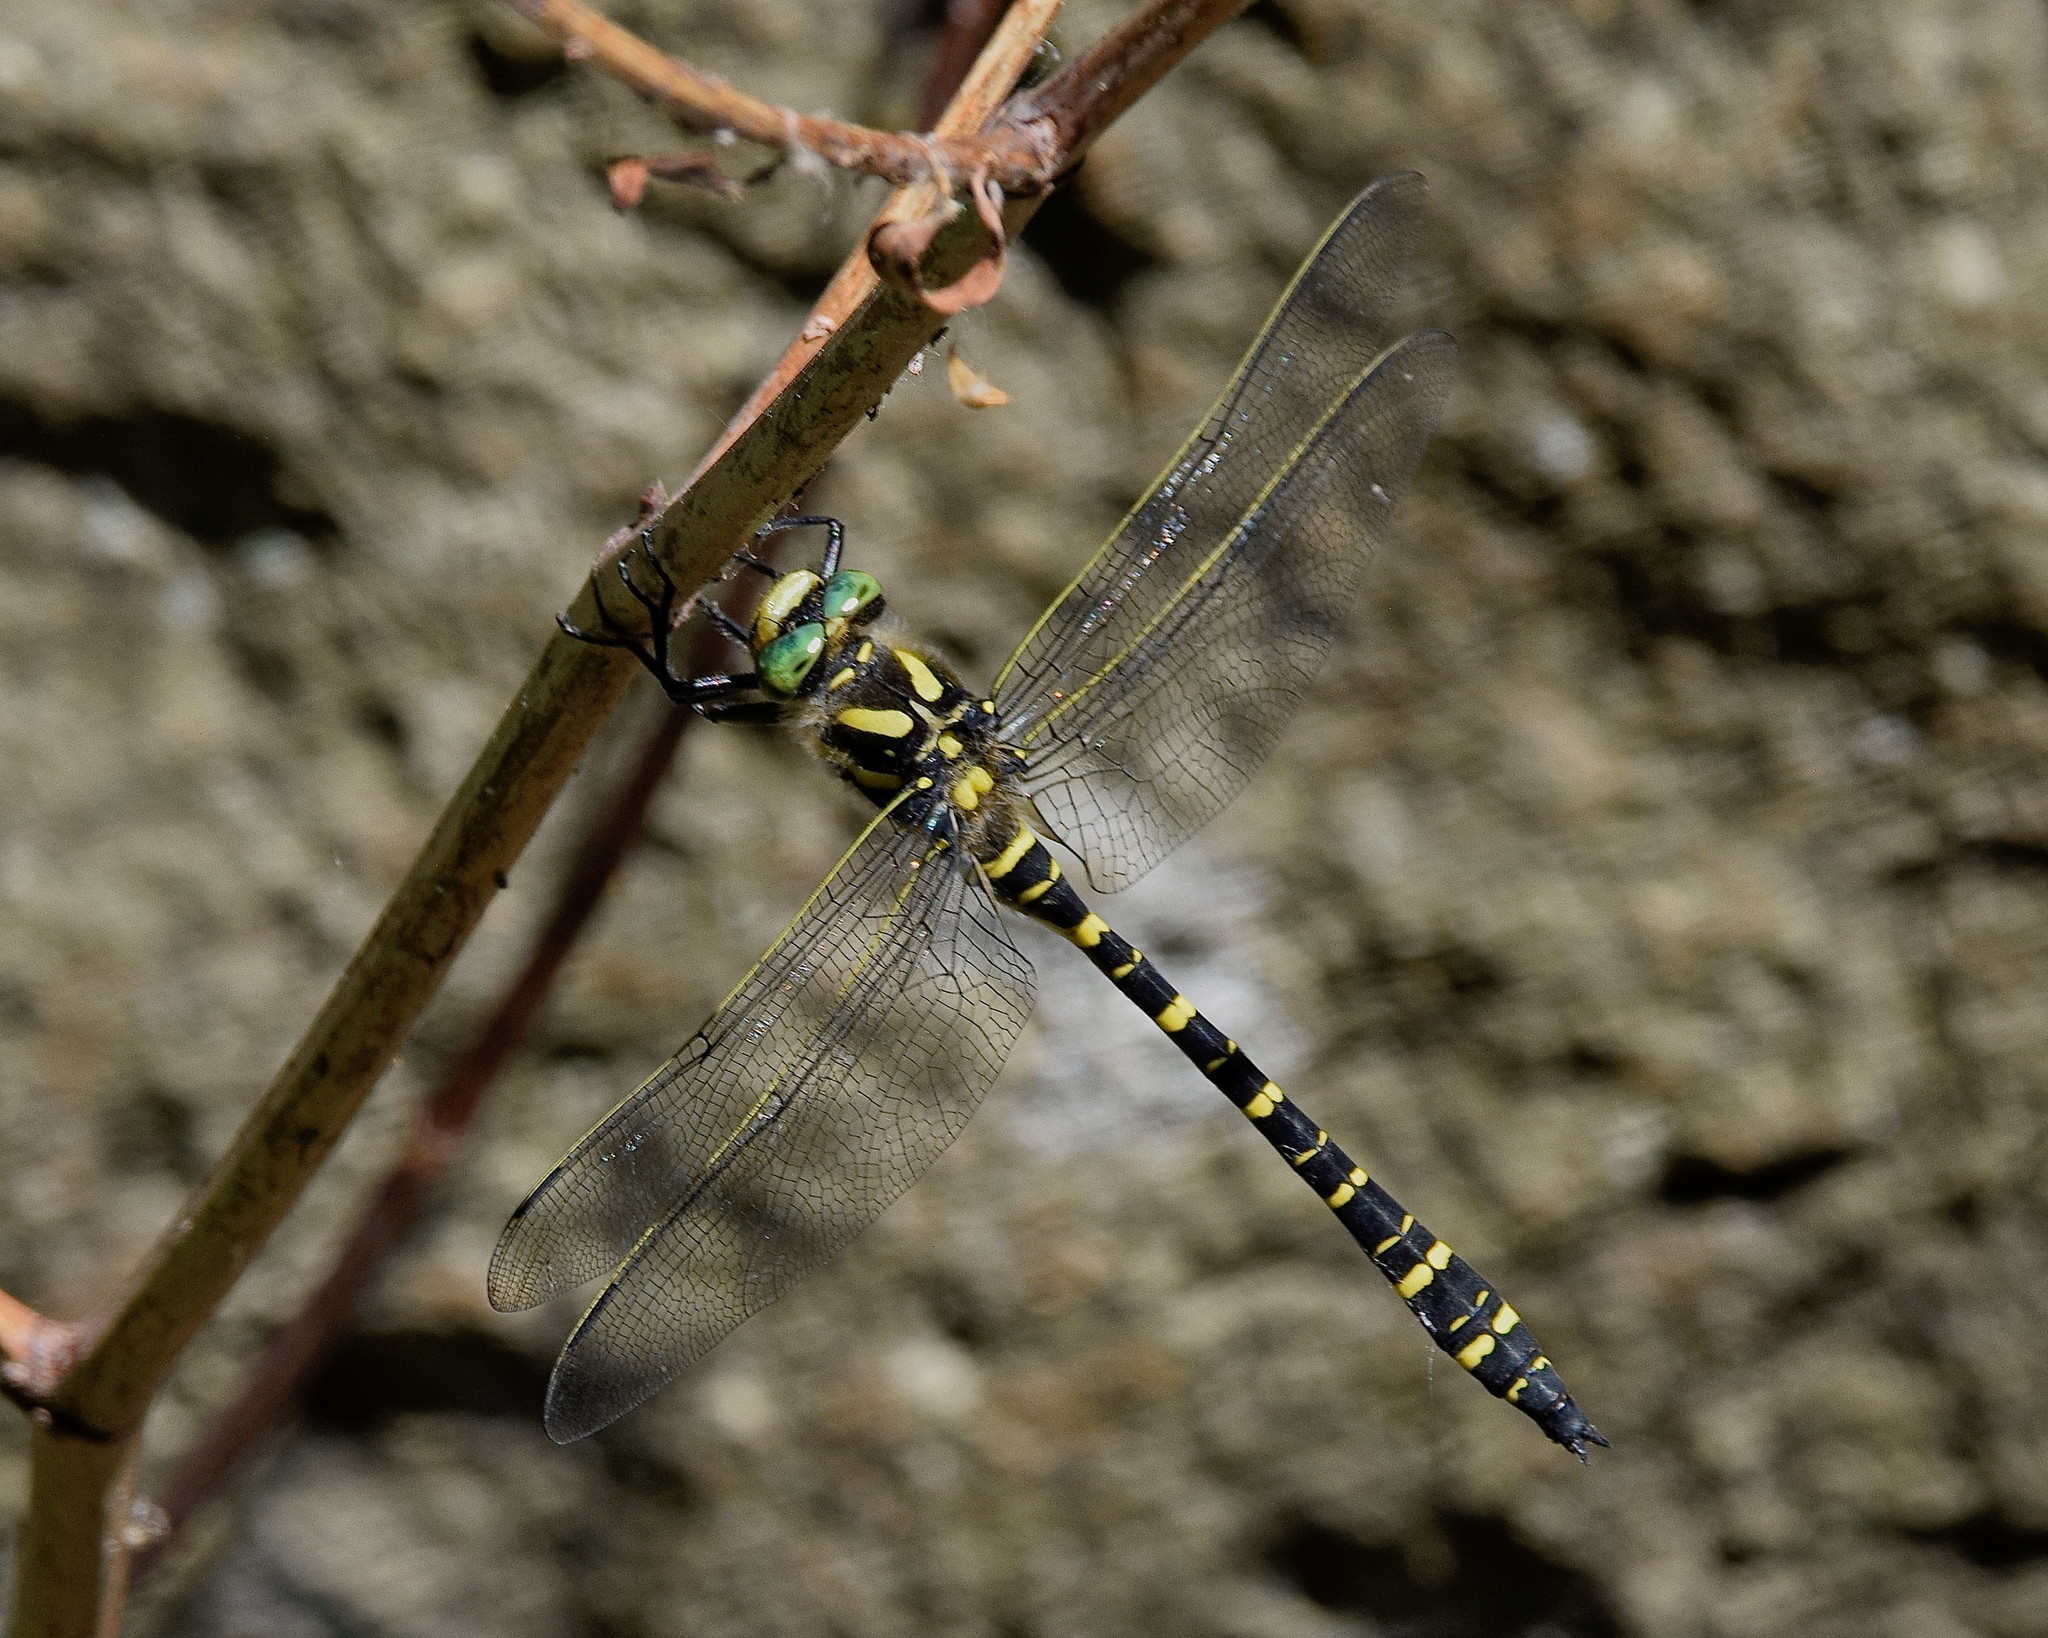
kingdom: Animalia
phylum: Arthropoda
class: Insecta
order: Odonata
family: Cordulegastridae
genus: Cordulegaster
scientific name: Cordulegaster boltonii
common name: Golden-ringed dragonfly
